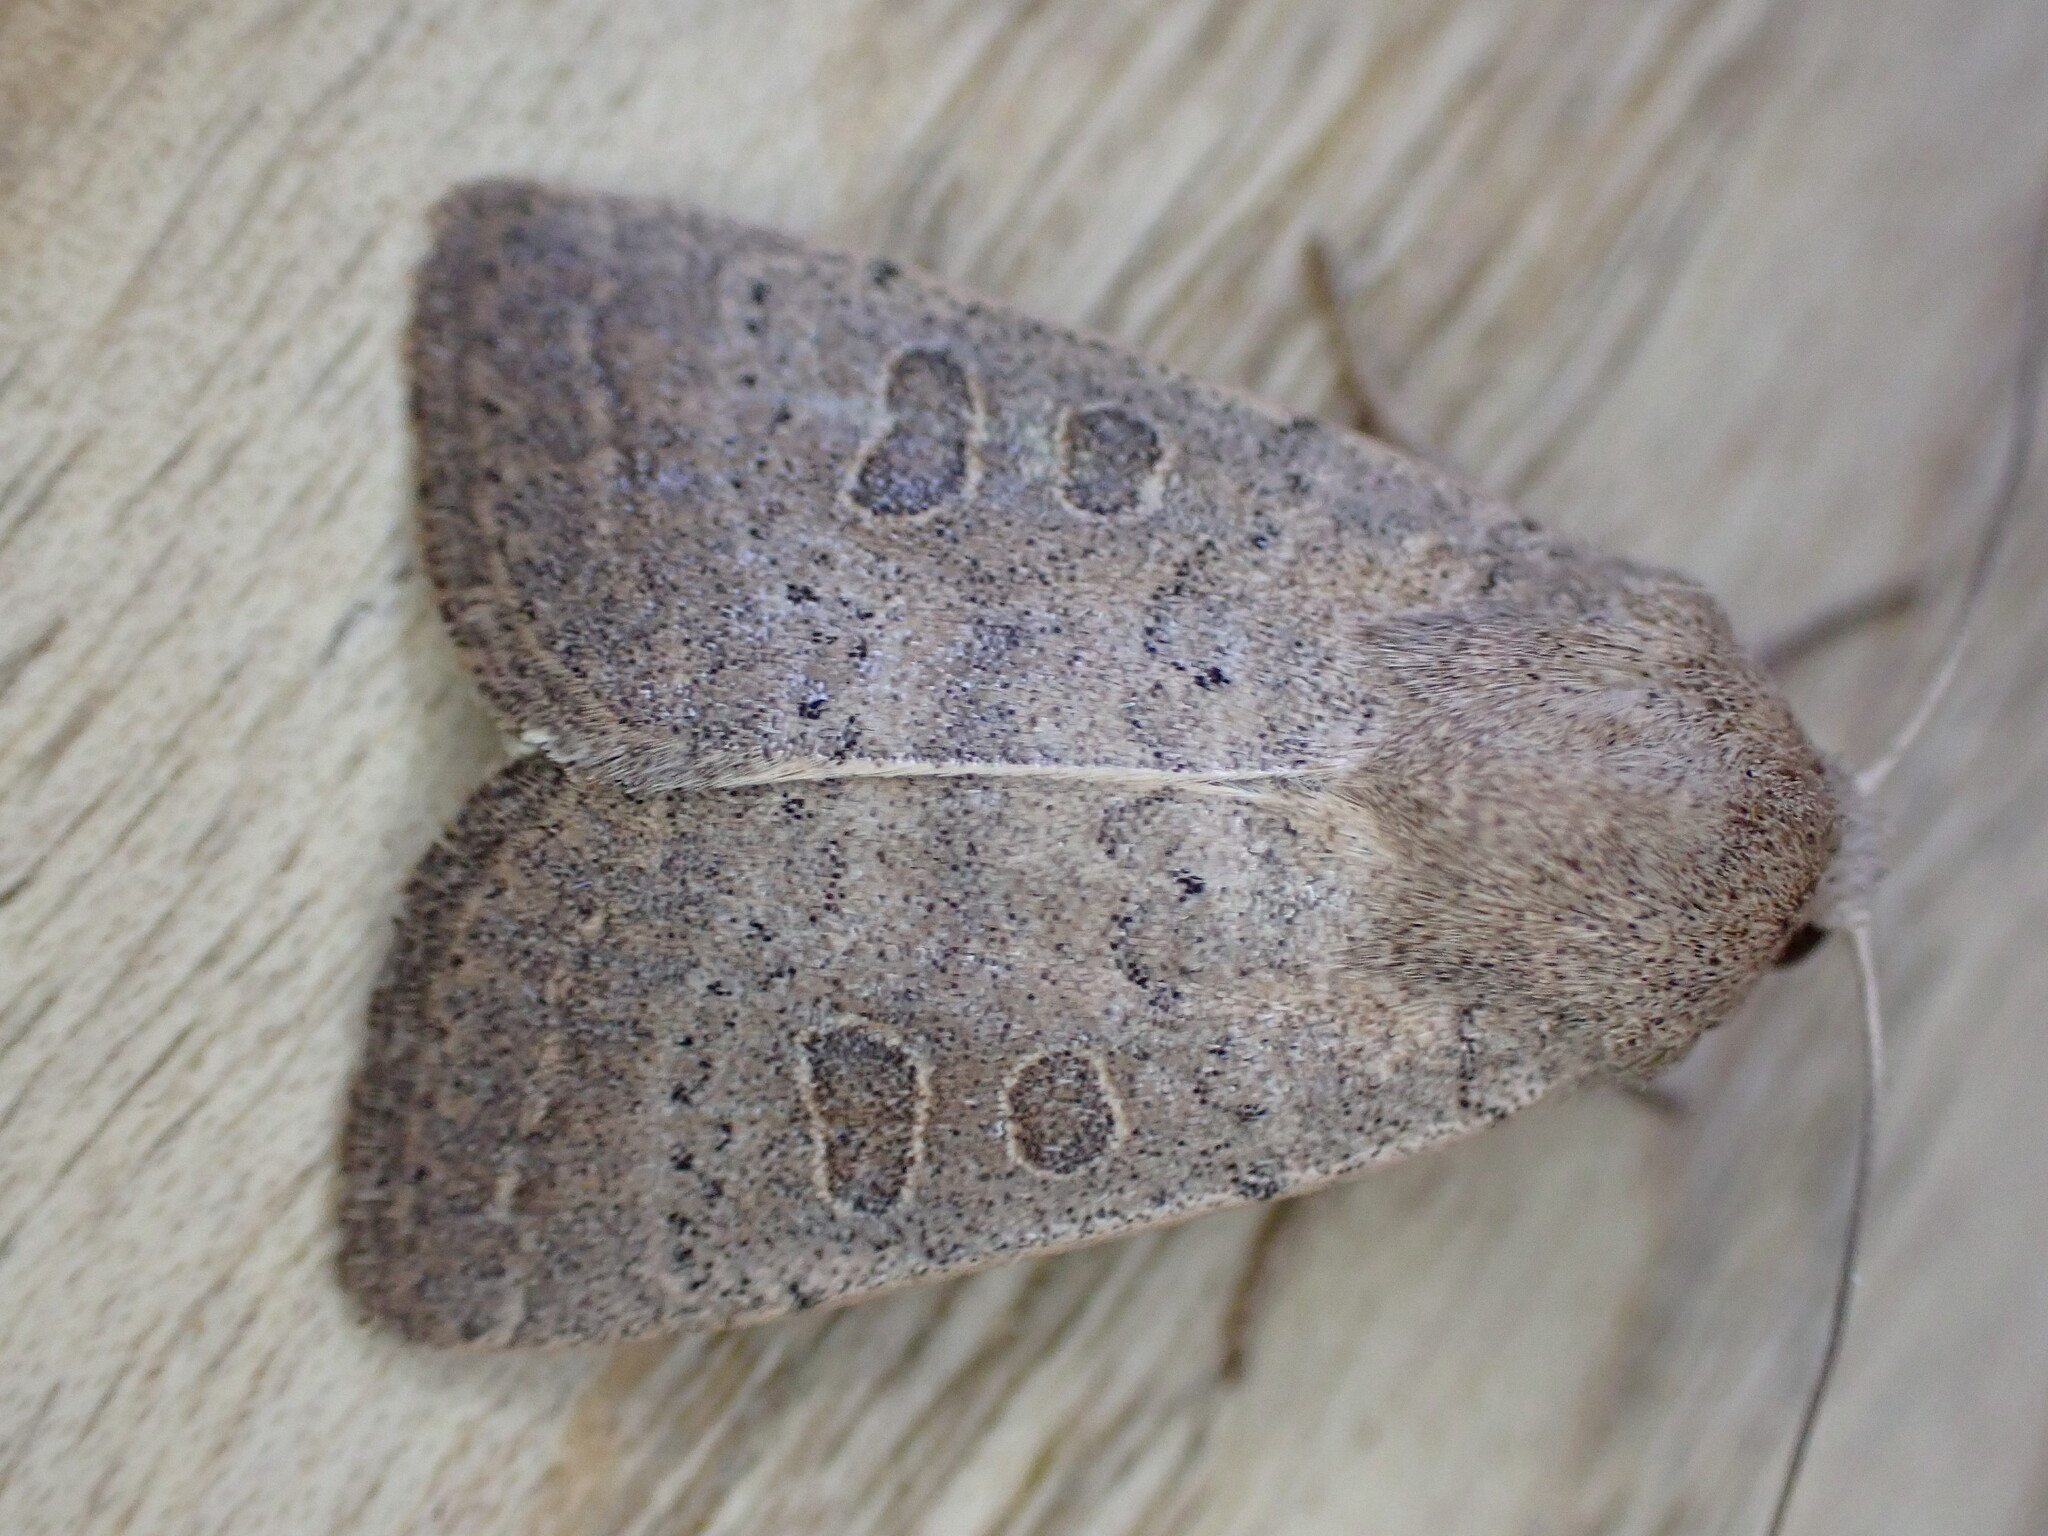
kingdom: Animalia
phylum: Arthropoda
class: Insecta
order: Lepidoptera
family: Noctuidae
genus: Hoplodrina
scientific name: Hoplodrina ambigua
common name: Vine's rustic
